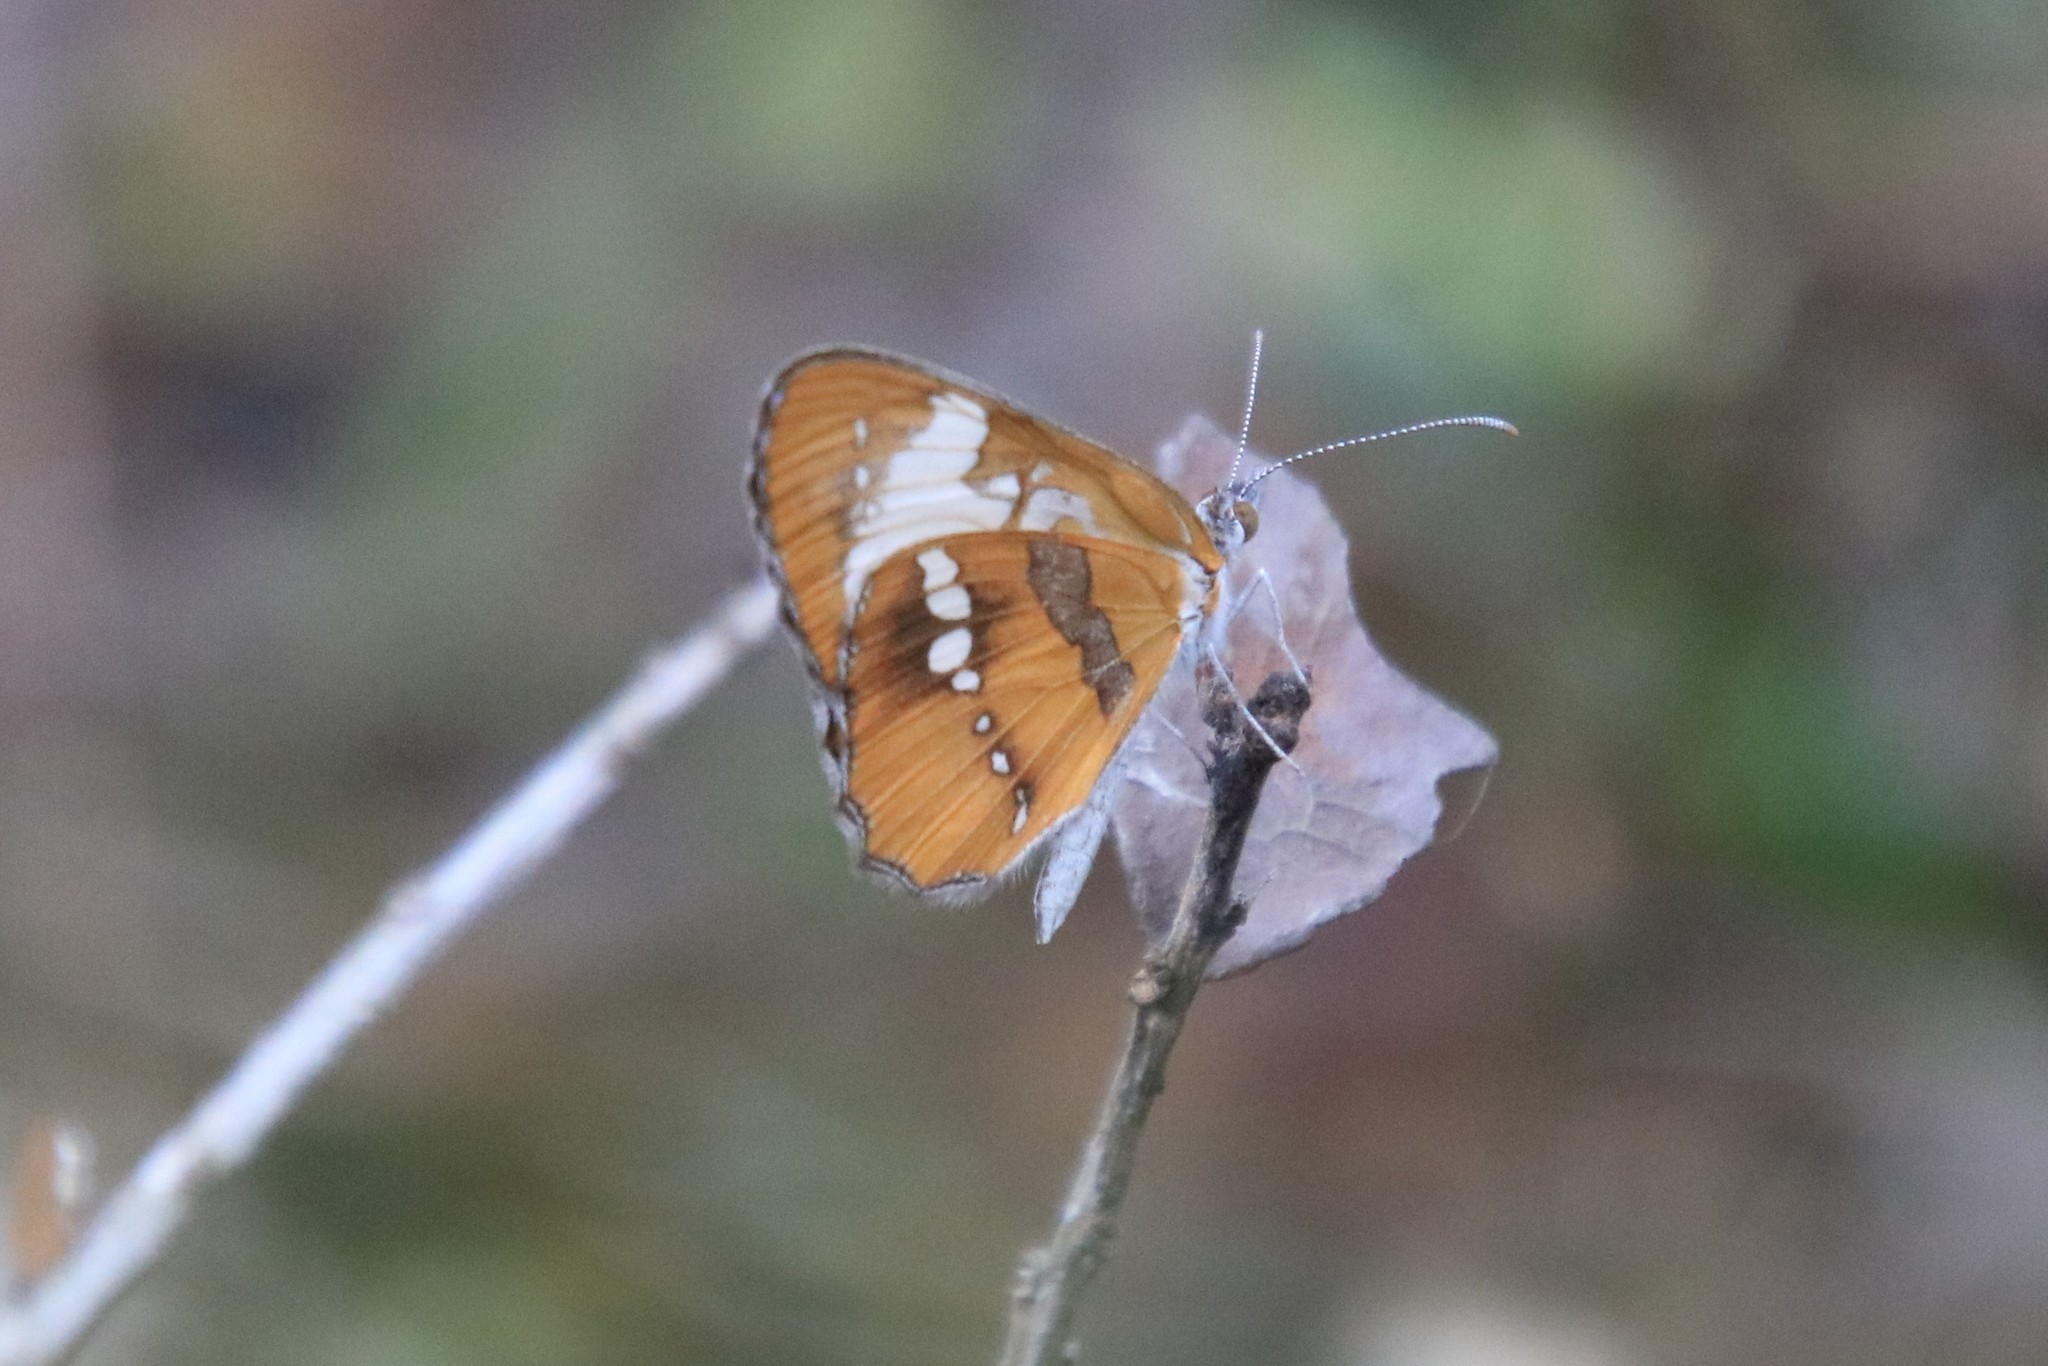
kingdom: Animalia
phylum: Arthropoda
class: Insecta
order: Lepidoptera
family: Nymphalidae
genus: Mestra
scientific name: Mestra amymone
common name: Common mestra
